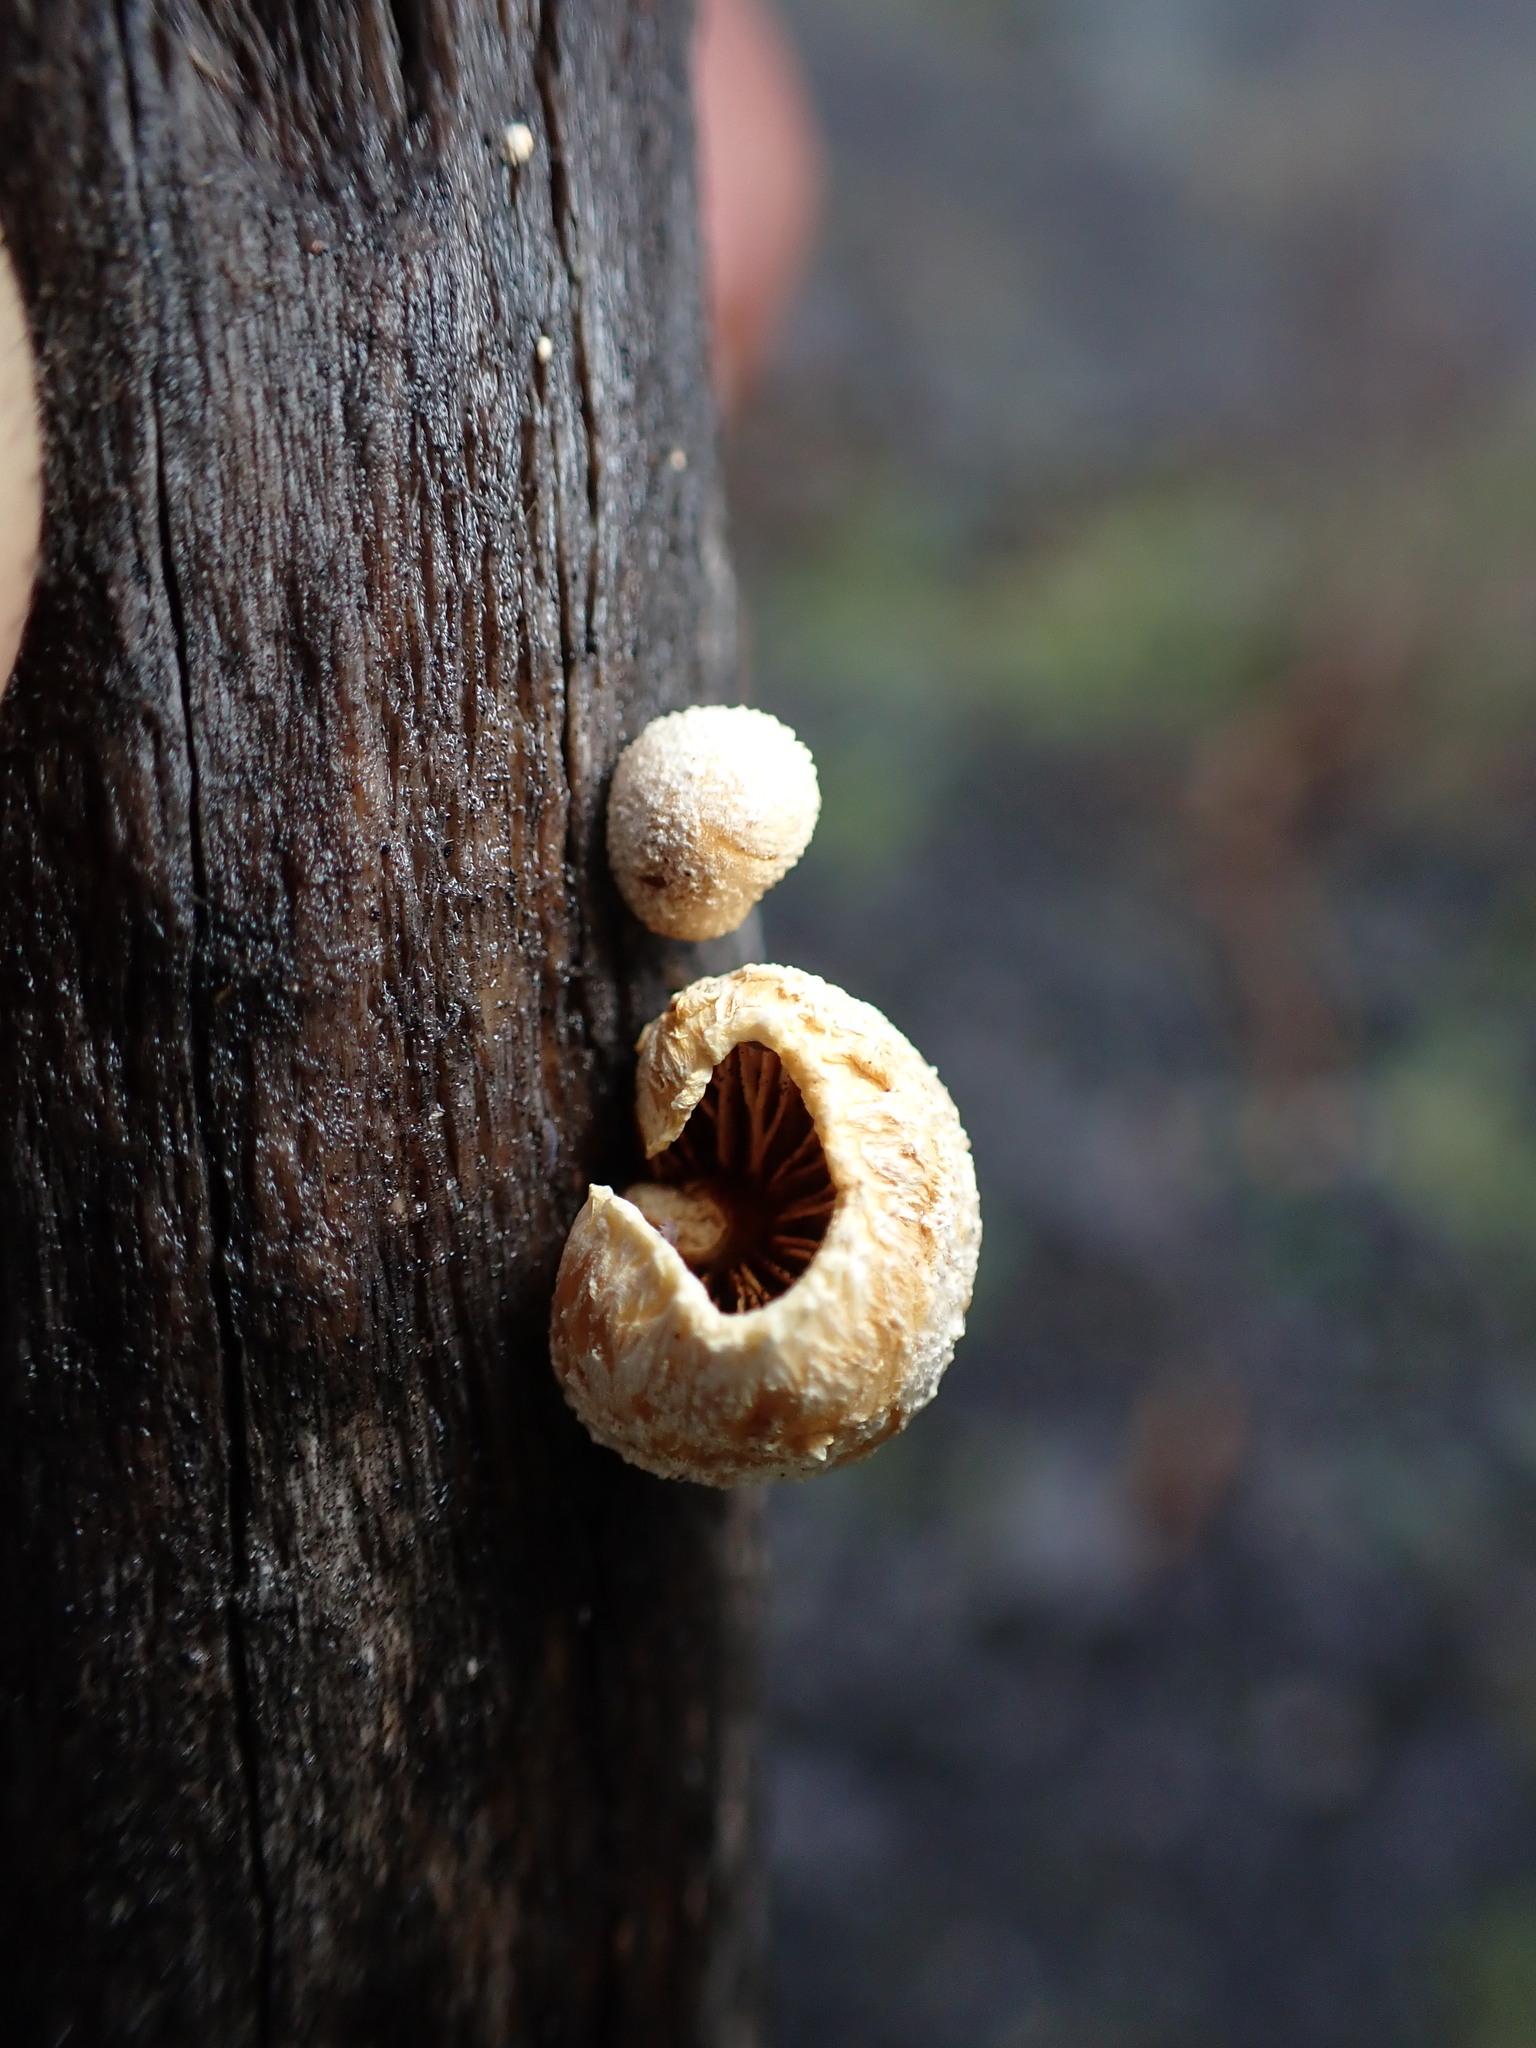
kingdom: Fungi
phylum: Basidiomycota
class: Agaricomycetes
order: Agaricales
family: Crepidotaceae
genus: Pleuroflammula
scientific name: Pleuroflammula praestans
